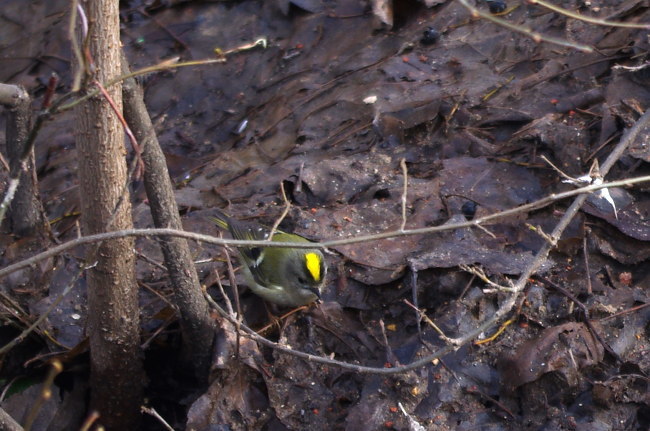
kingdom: Animalia
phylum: Chordata
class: Aves
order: Passeriformes
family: Regulidae
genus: Regulus
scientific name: Regulus regulus
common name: Goldcrest
